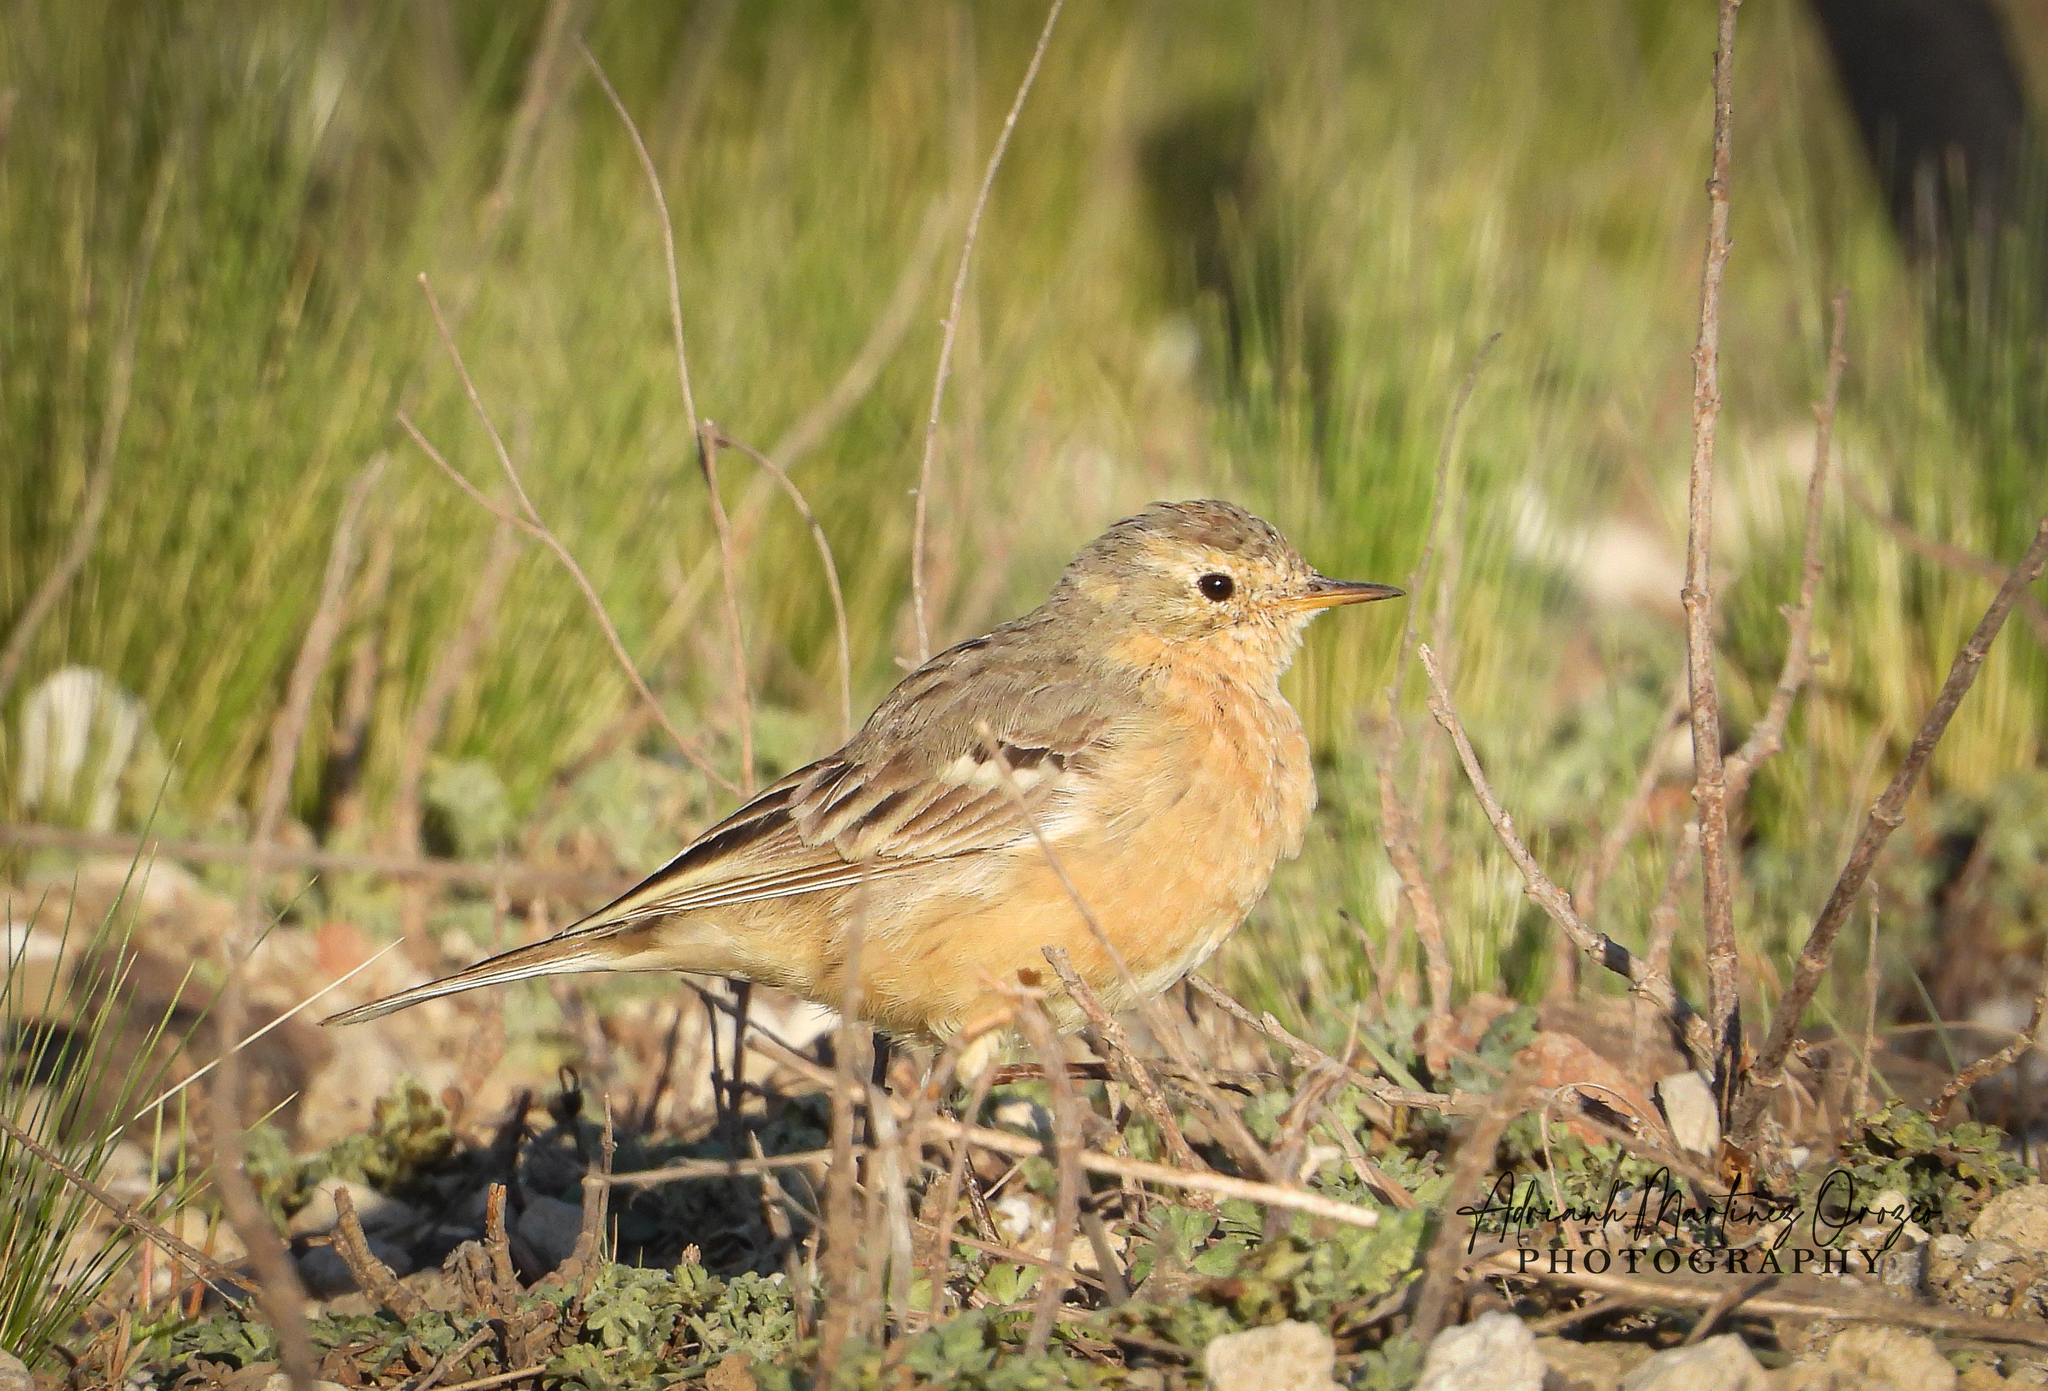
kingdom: Animalia
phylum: Chordata
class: Aves
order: Passeriformes
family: Motacillidae
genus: Anthus
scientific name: Anthus rubescens
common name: Buff-bellied pipit
